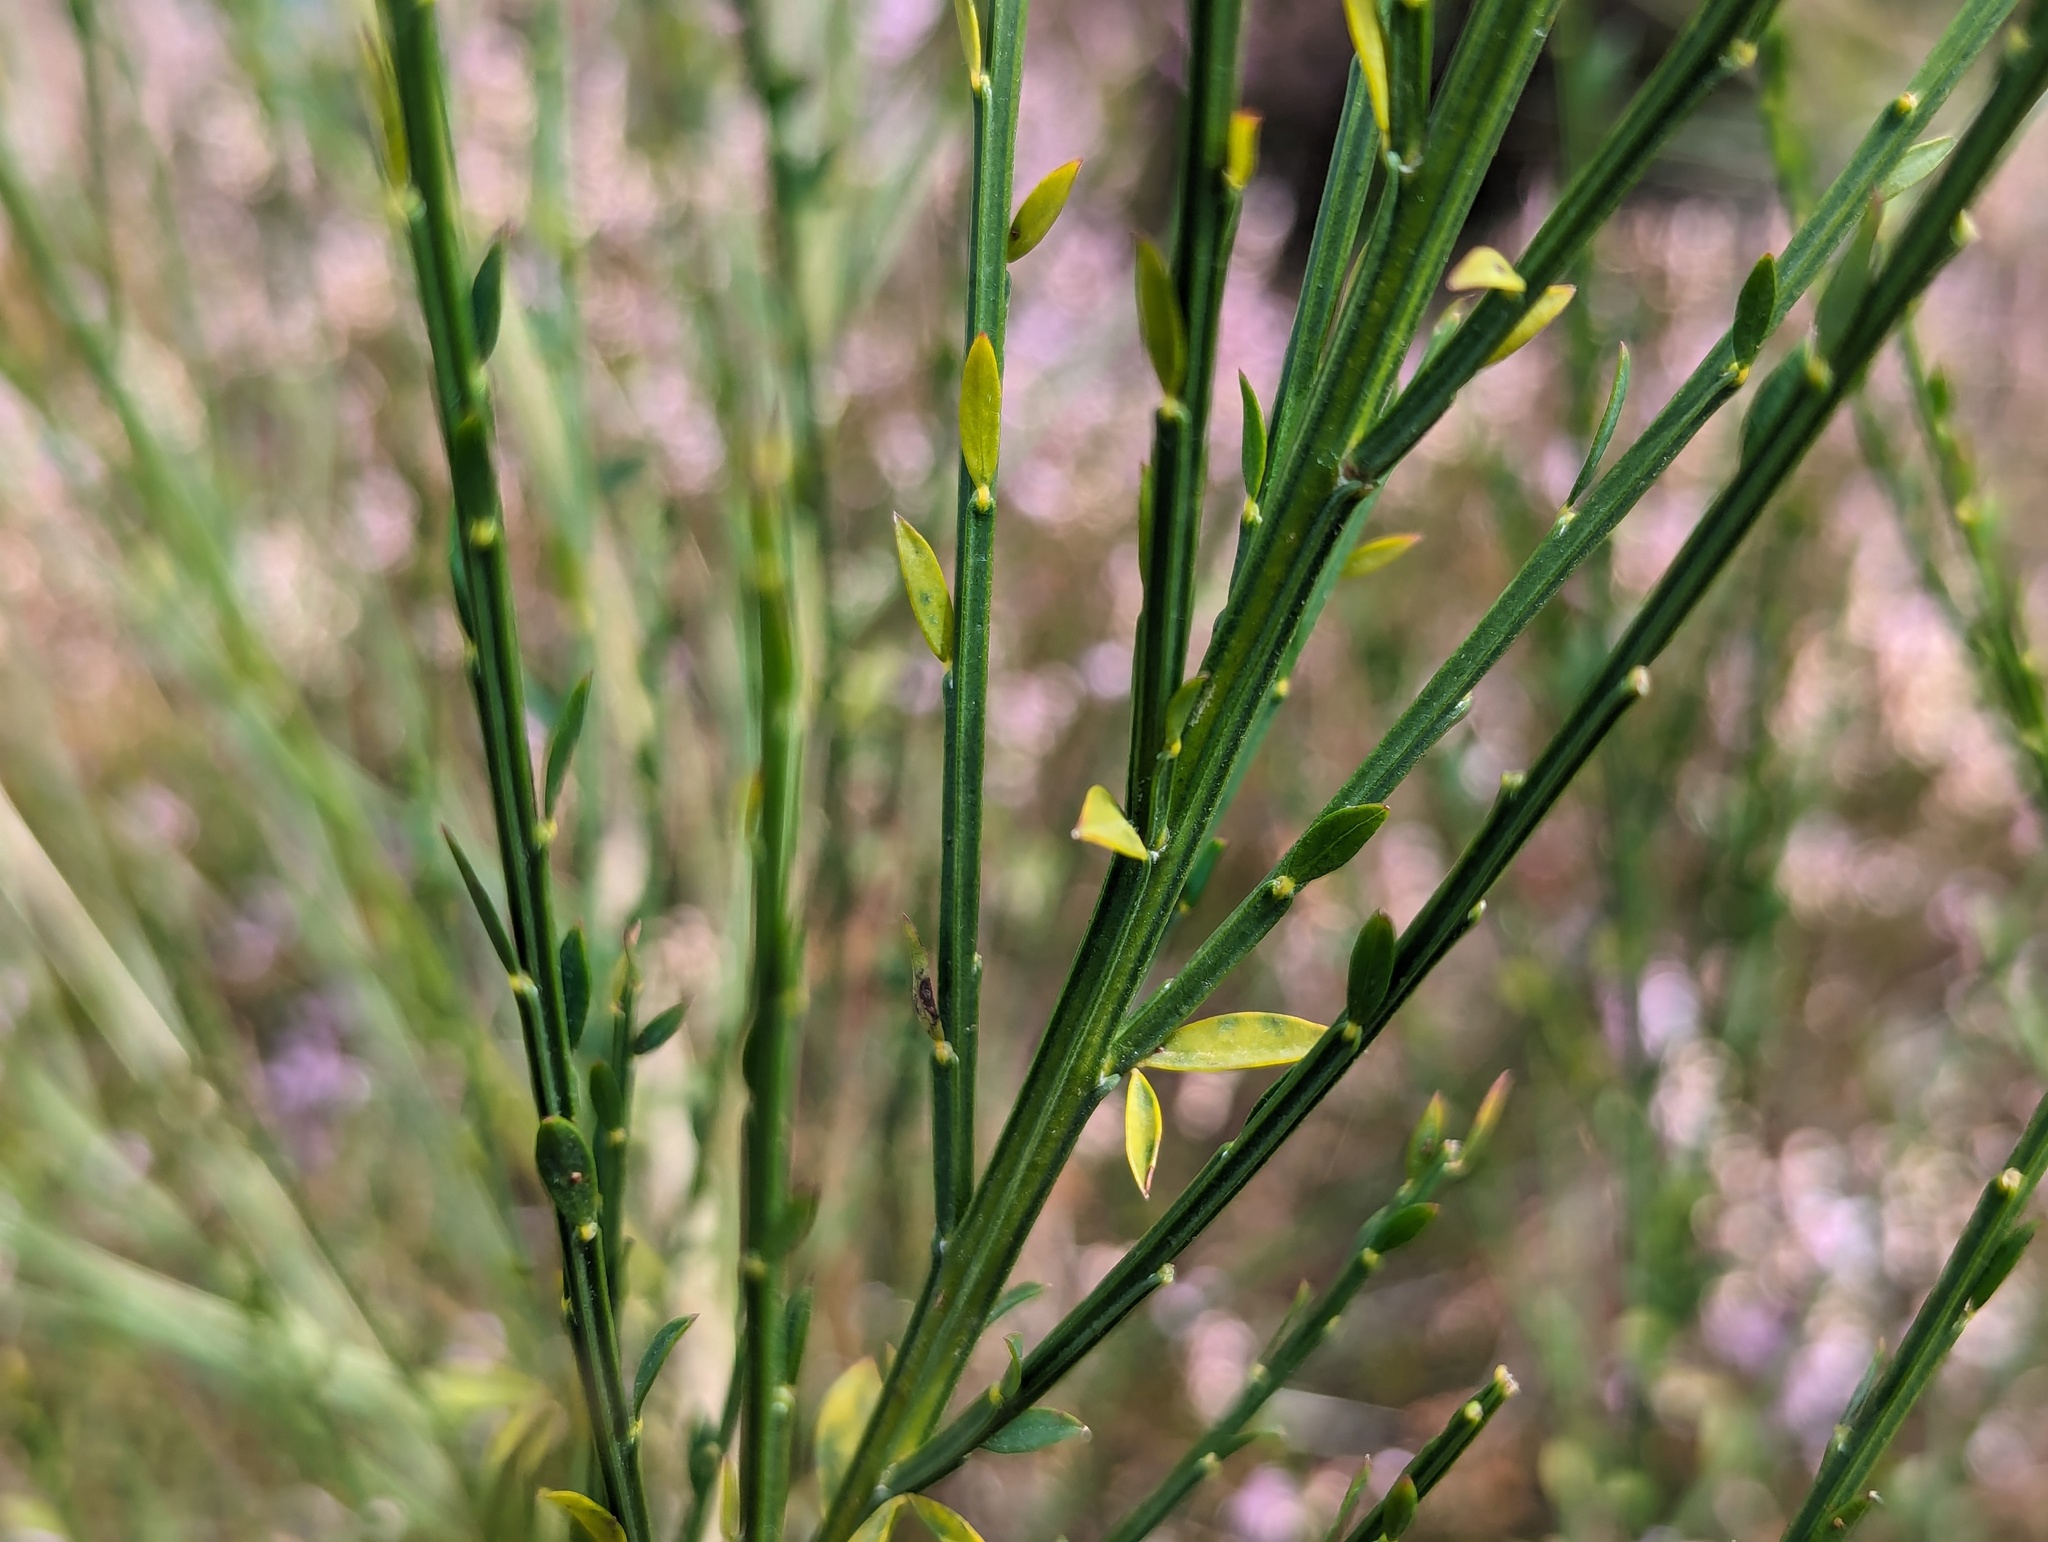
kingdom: Plantae
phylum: Tracheophyta
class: Magnoliopsida
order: Fabales
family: Fabaceae
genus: Cytisus
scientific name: Cytisus scoparius
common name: Scotch broom
